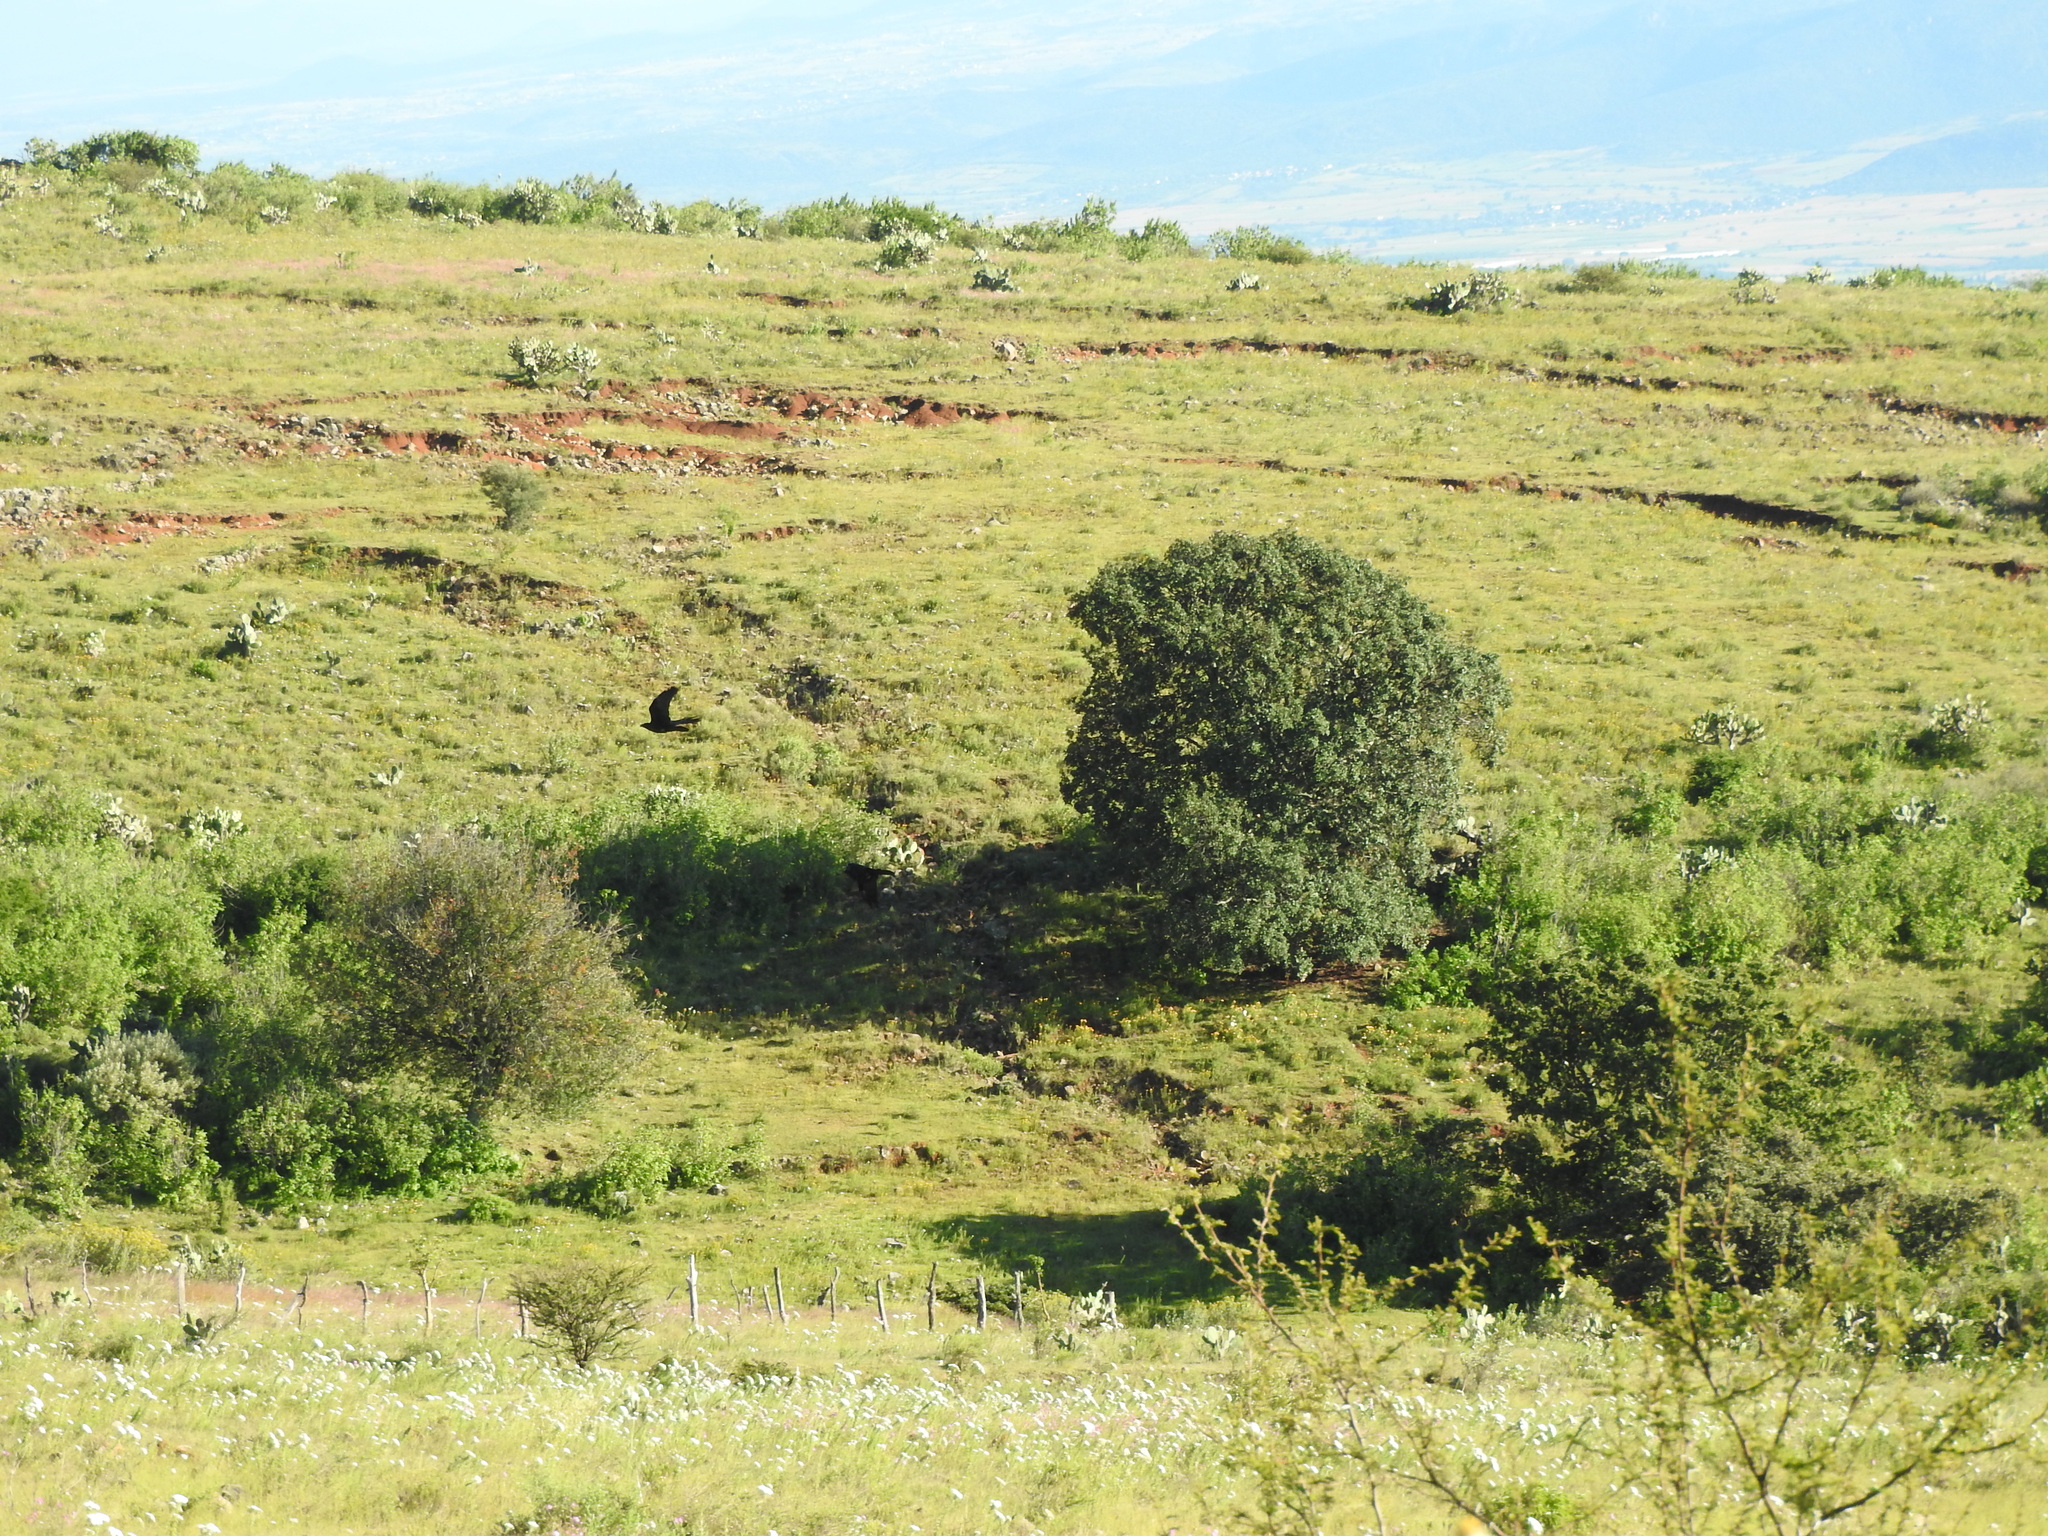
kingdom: Animalia
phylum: Chordata
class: Aves
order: Passeriformes
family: Corvidae
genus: Corvus
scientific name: Corvus corax
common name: Common raven
